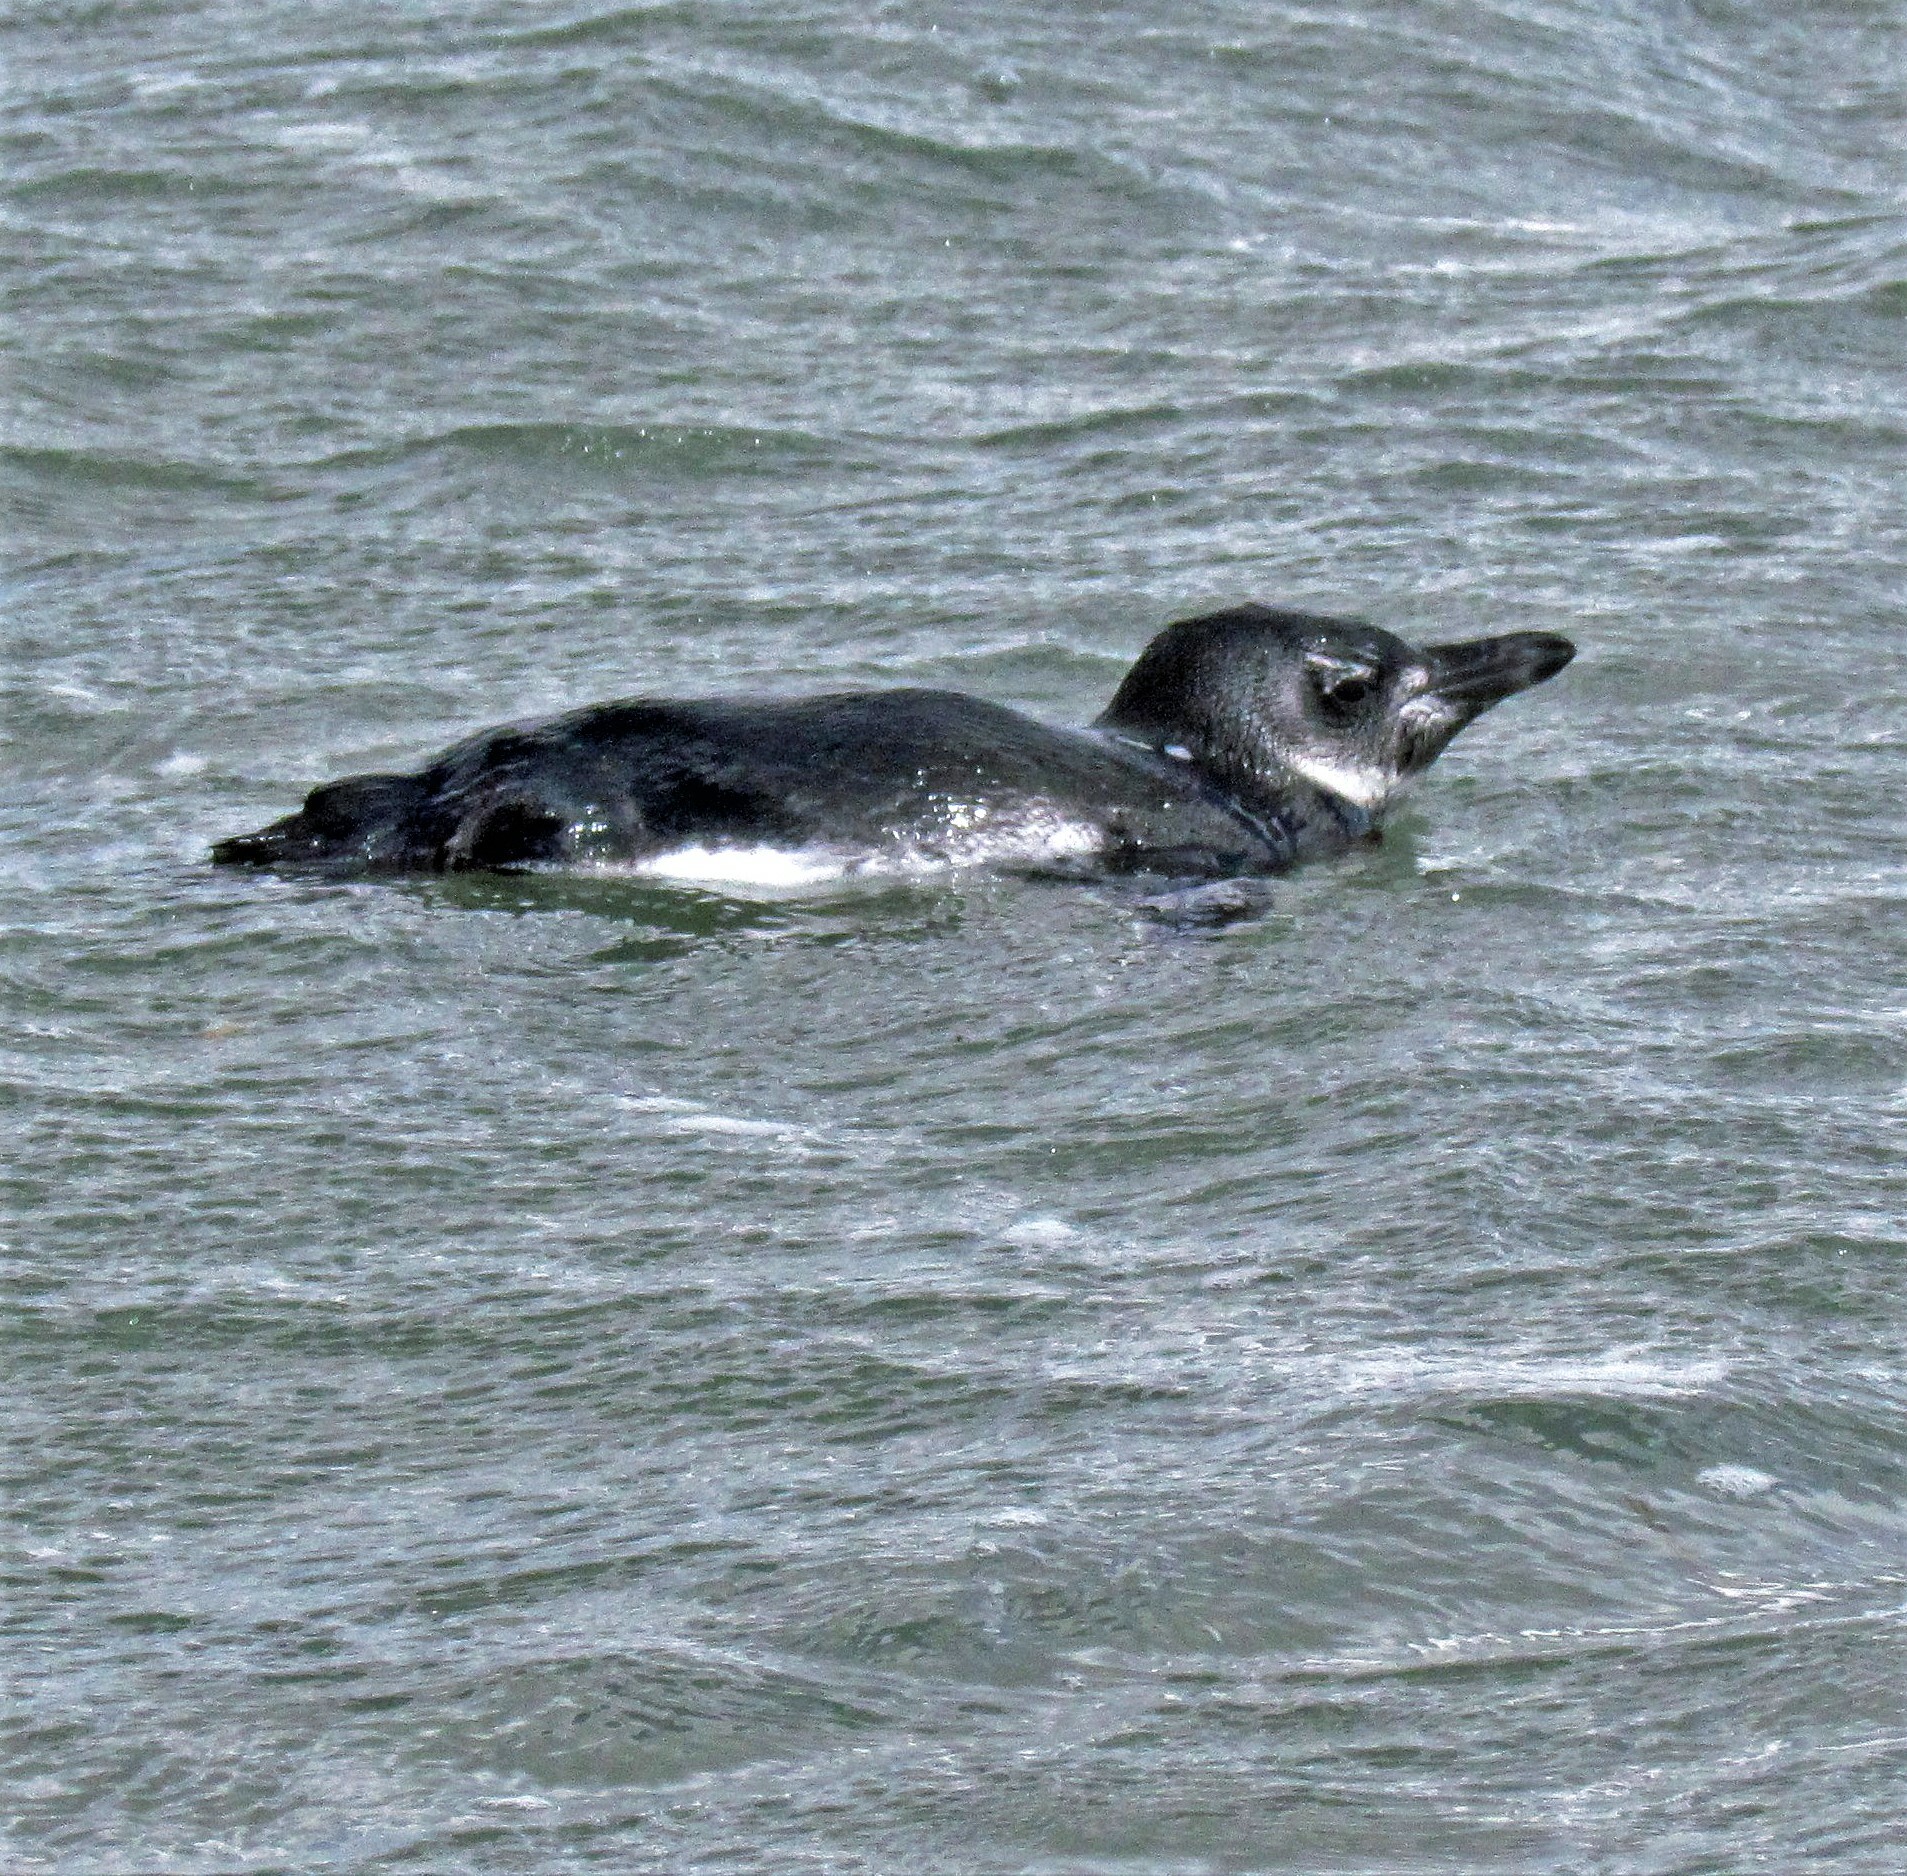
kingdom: Animalia
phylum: Chordata
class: Aves
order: Sphenisciformes
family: Spheniscidae
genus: Spheniscus
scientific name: Spheniscus magellanicus
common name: Magellanic penguin
